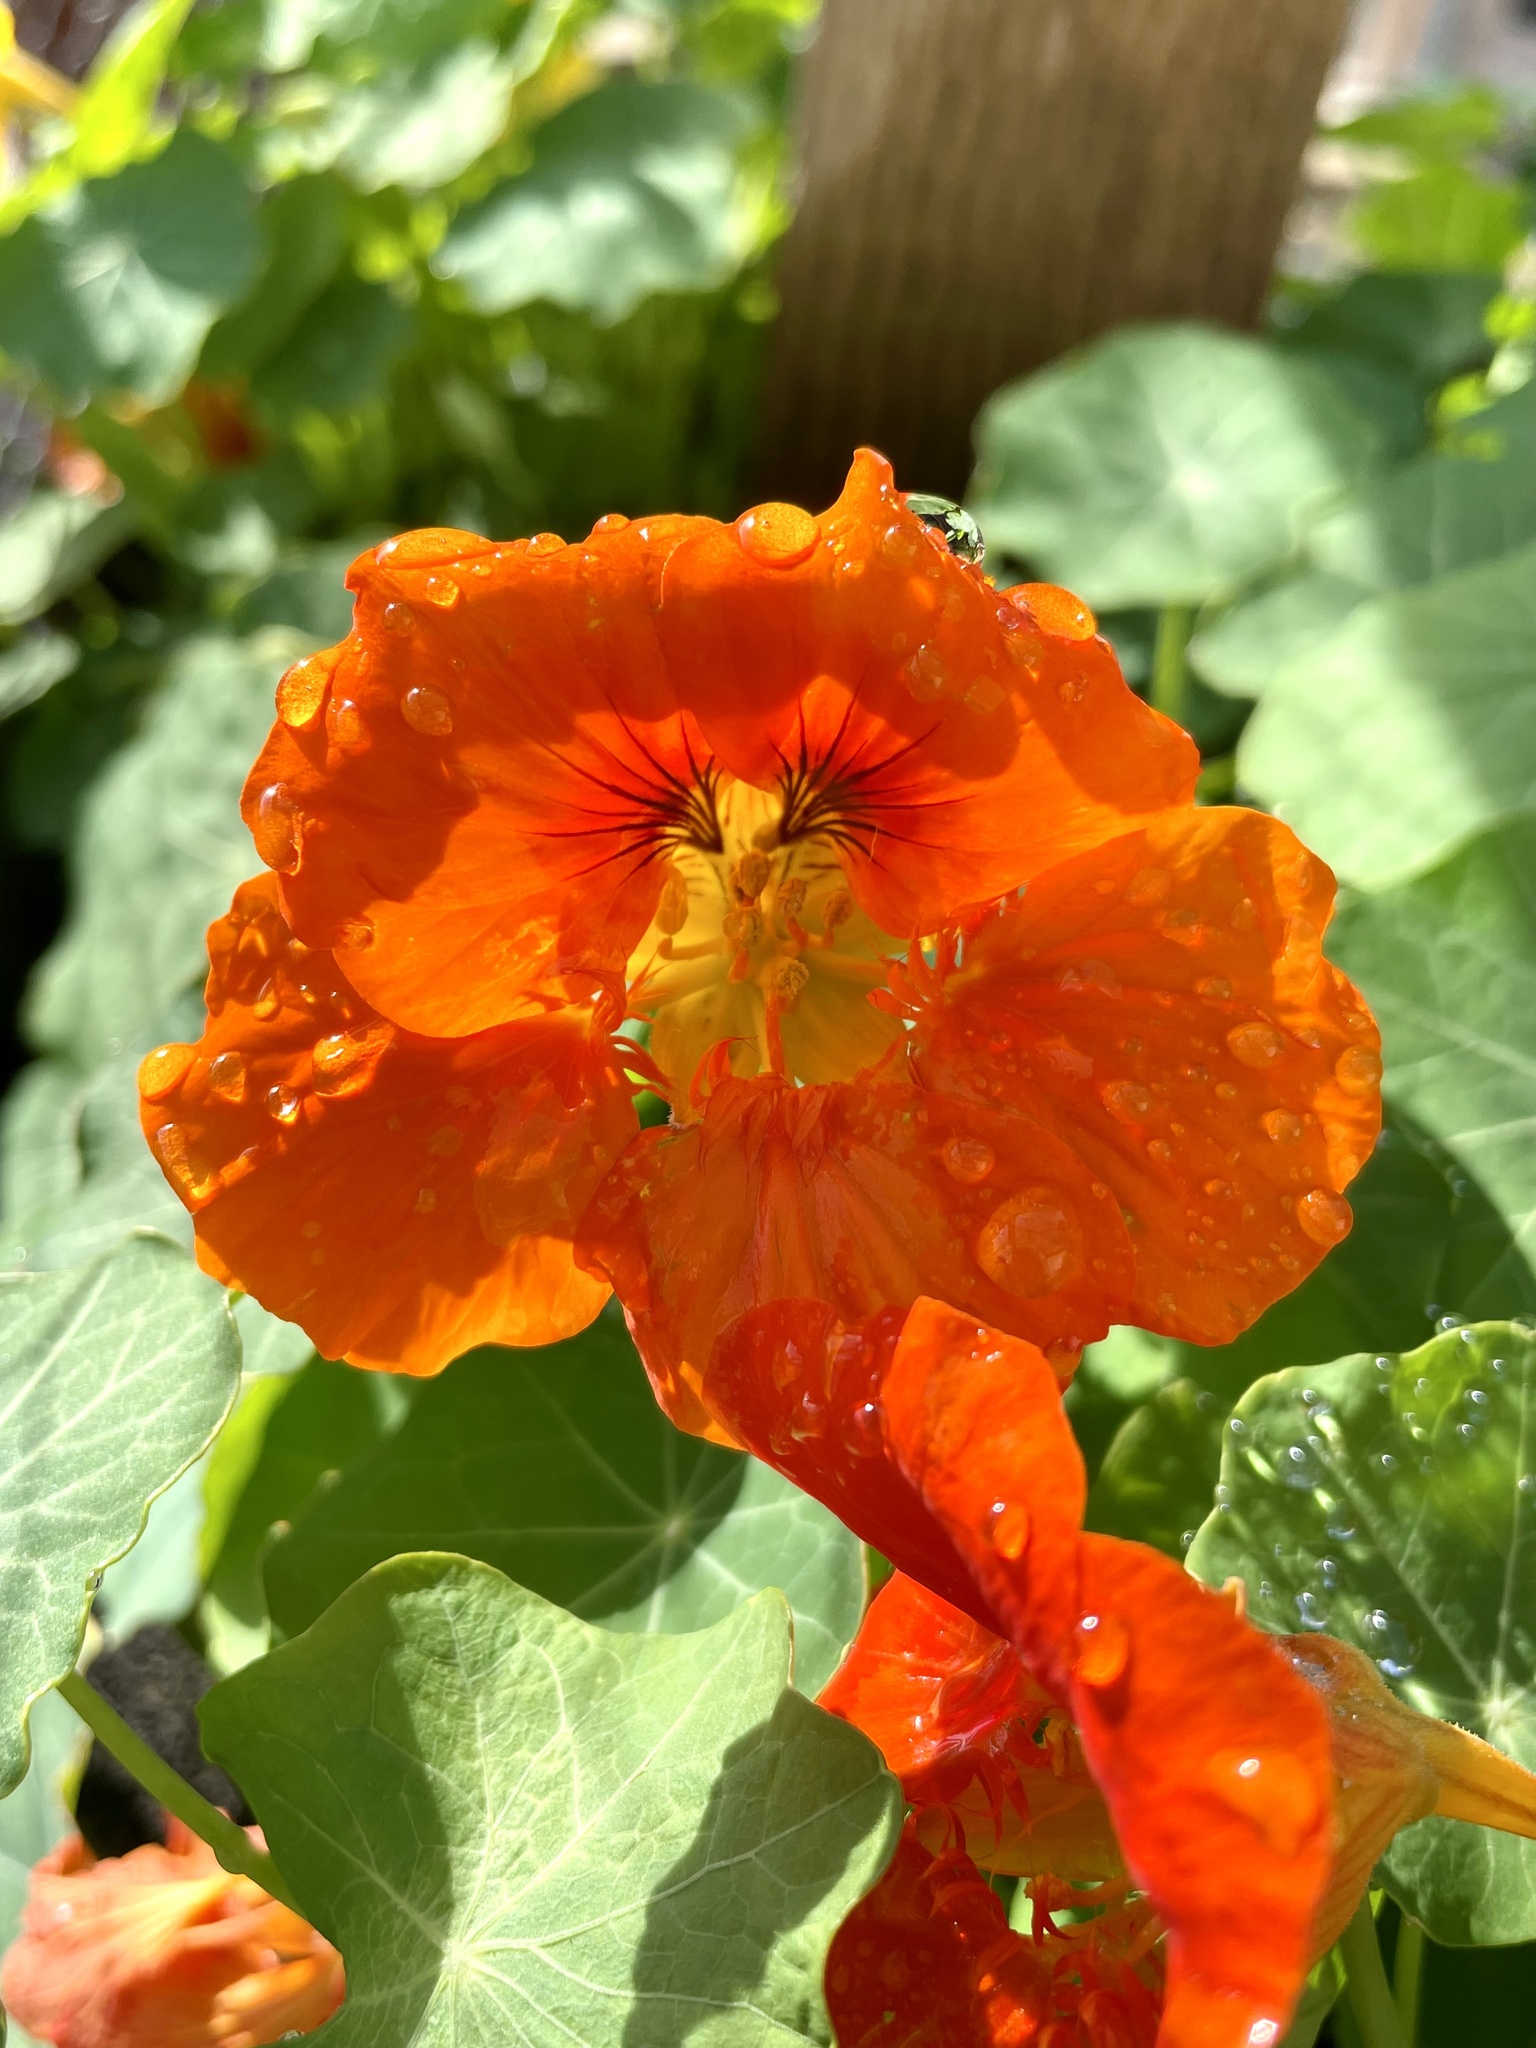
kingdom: Plantae
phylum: Tracheophyta
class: Magnoliopsida
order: Brassicales
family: Tropaeolaceae
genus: Tropaeolum
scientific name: Tropaeolum majus
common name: Nasturtium
